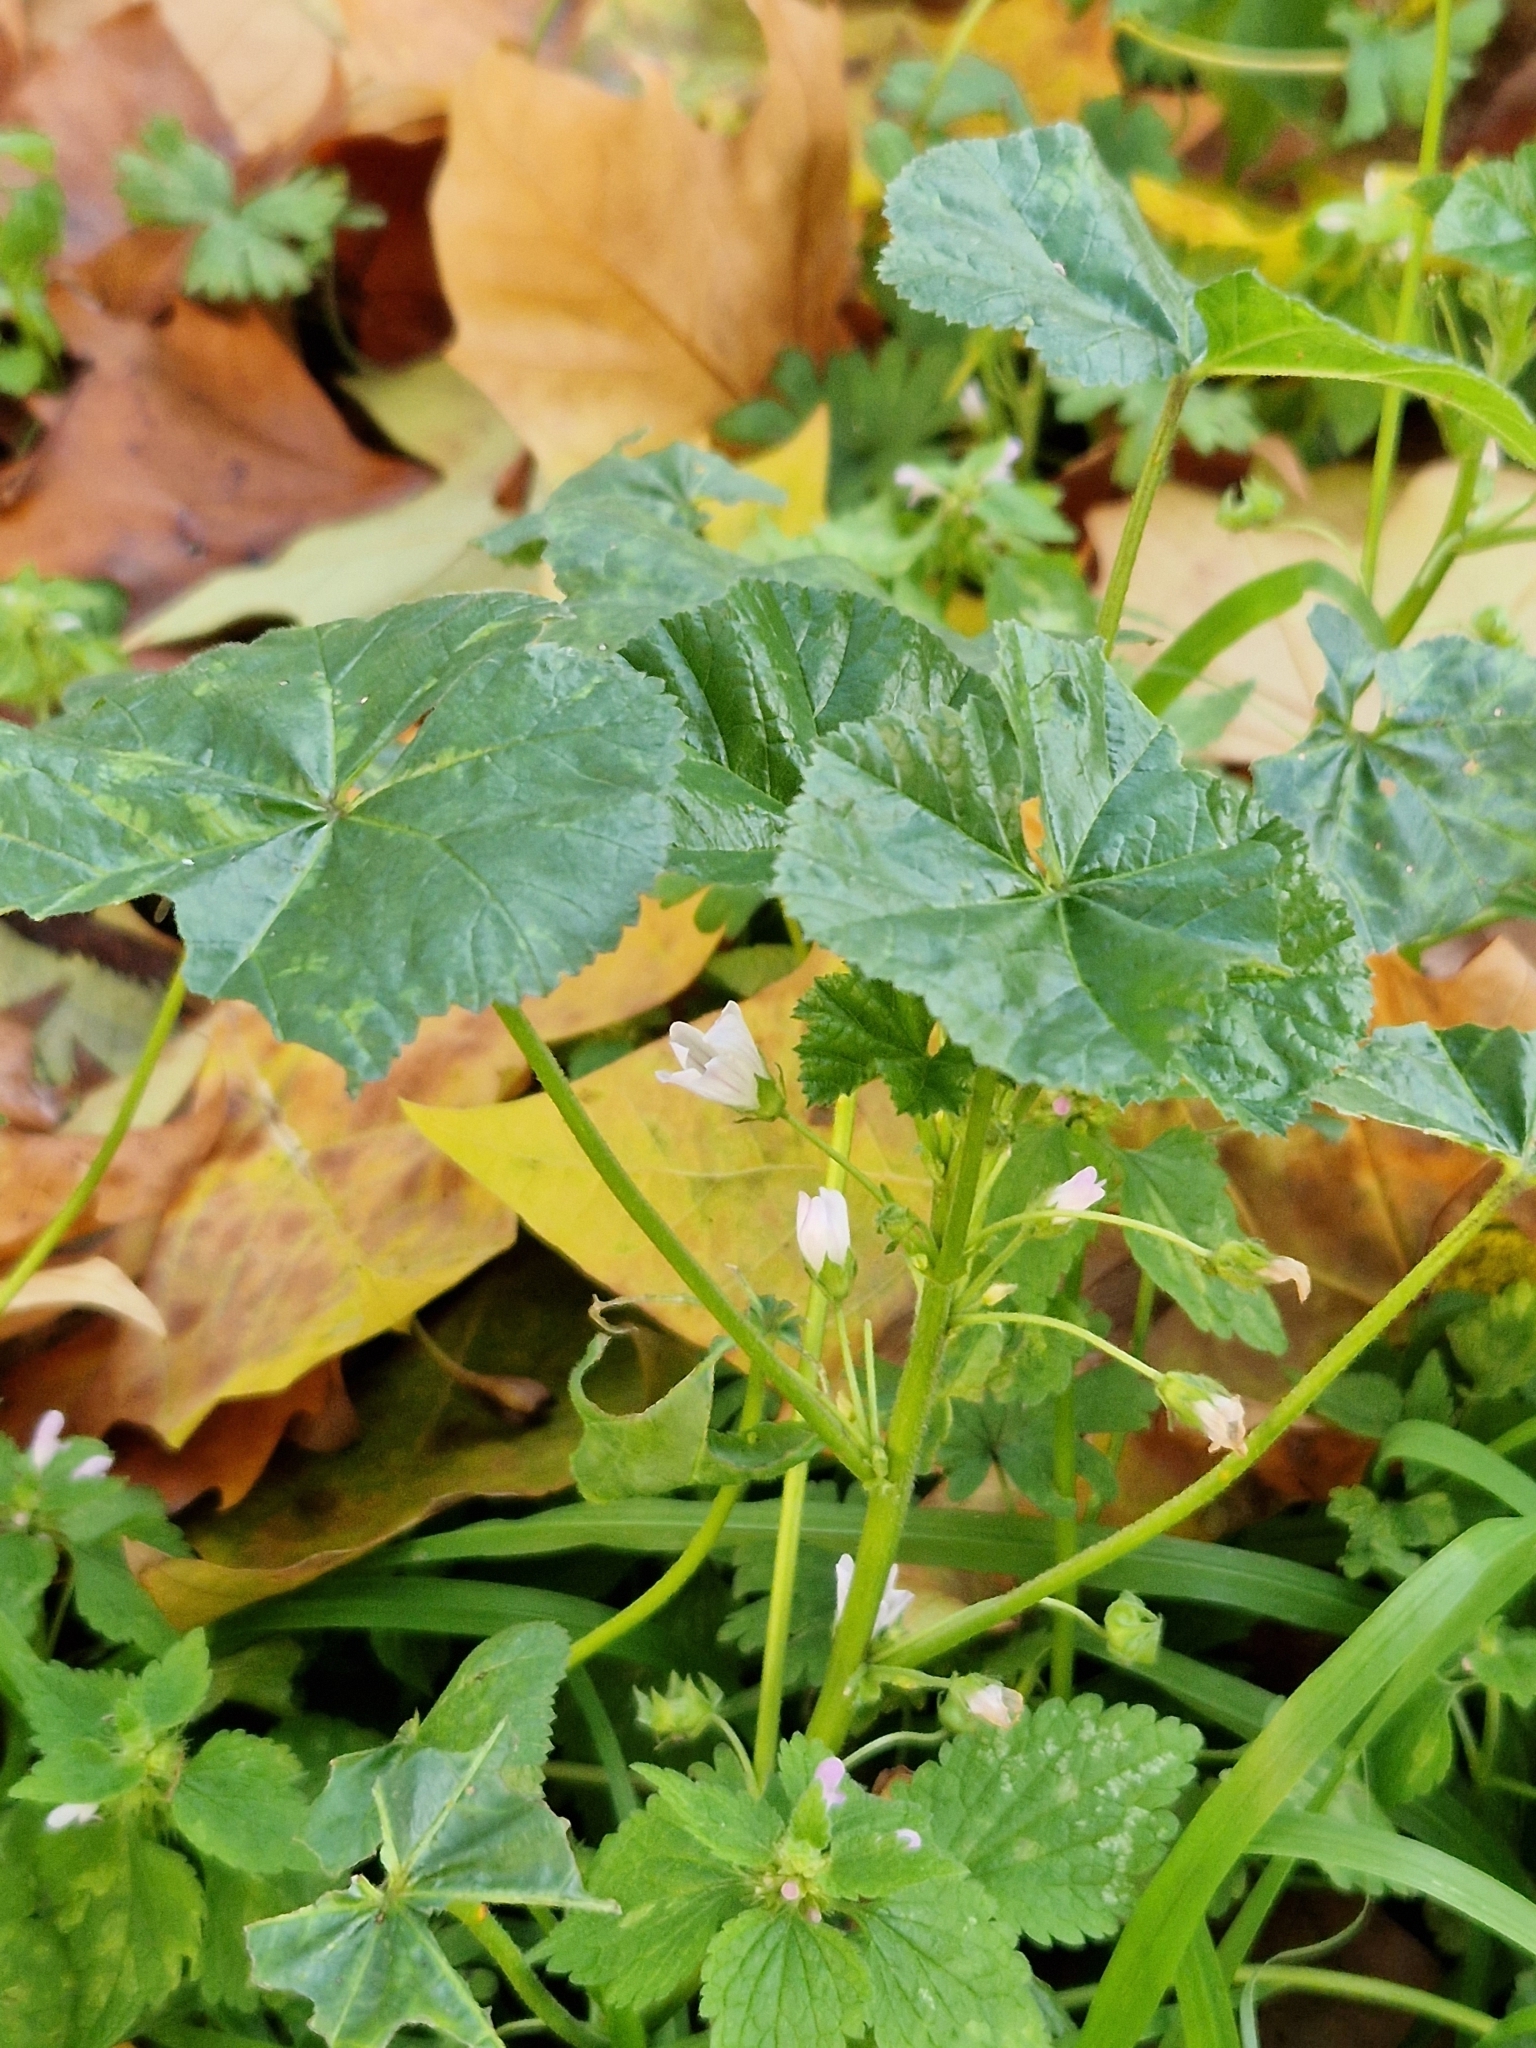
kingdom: Plantae
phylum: Tracheophyta
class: Magnoliopsida
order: Malvales
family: Malvaceae
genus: Malva
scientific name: Malva neglecta
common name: Common mallow
